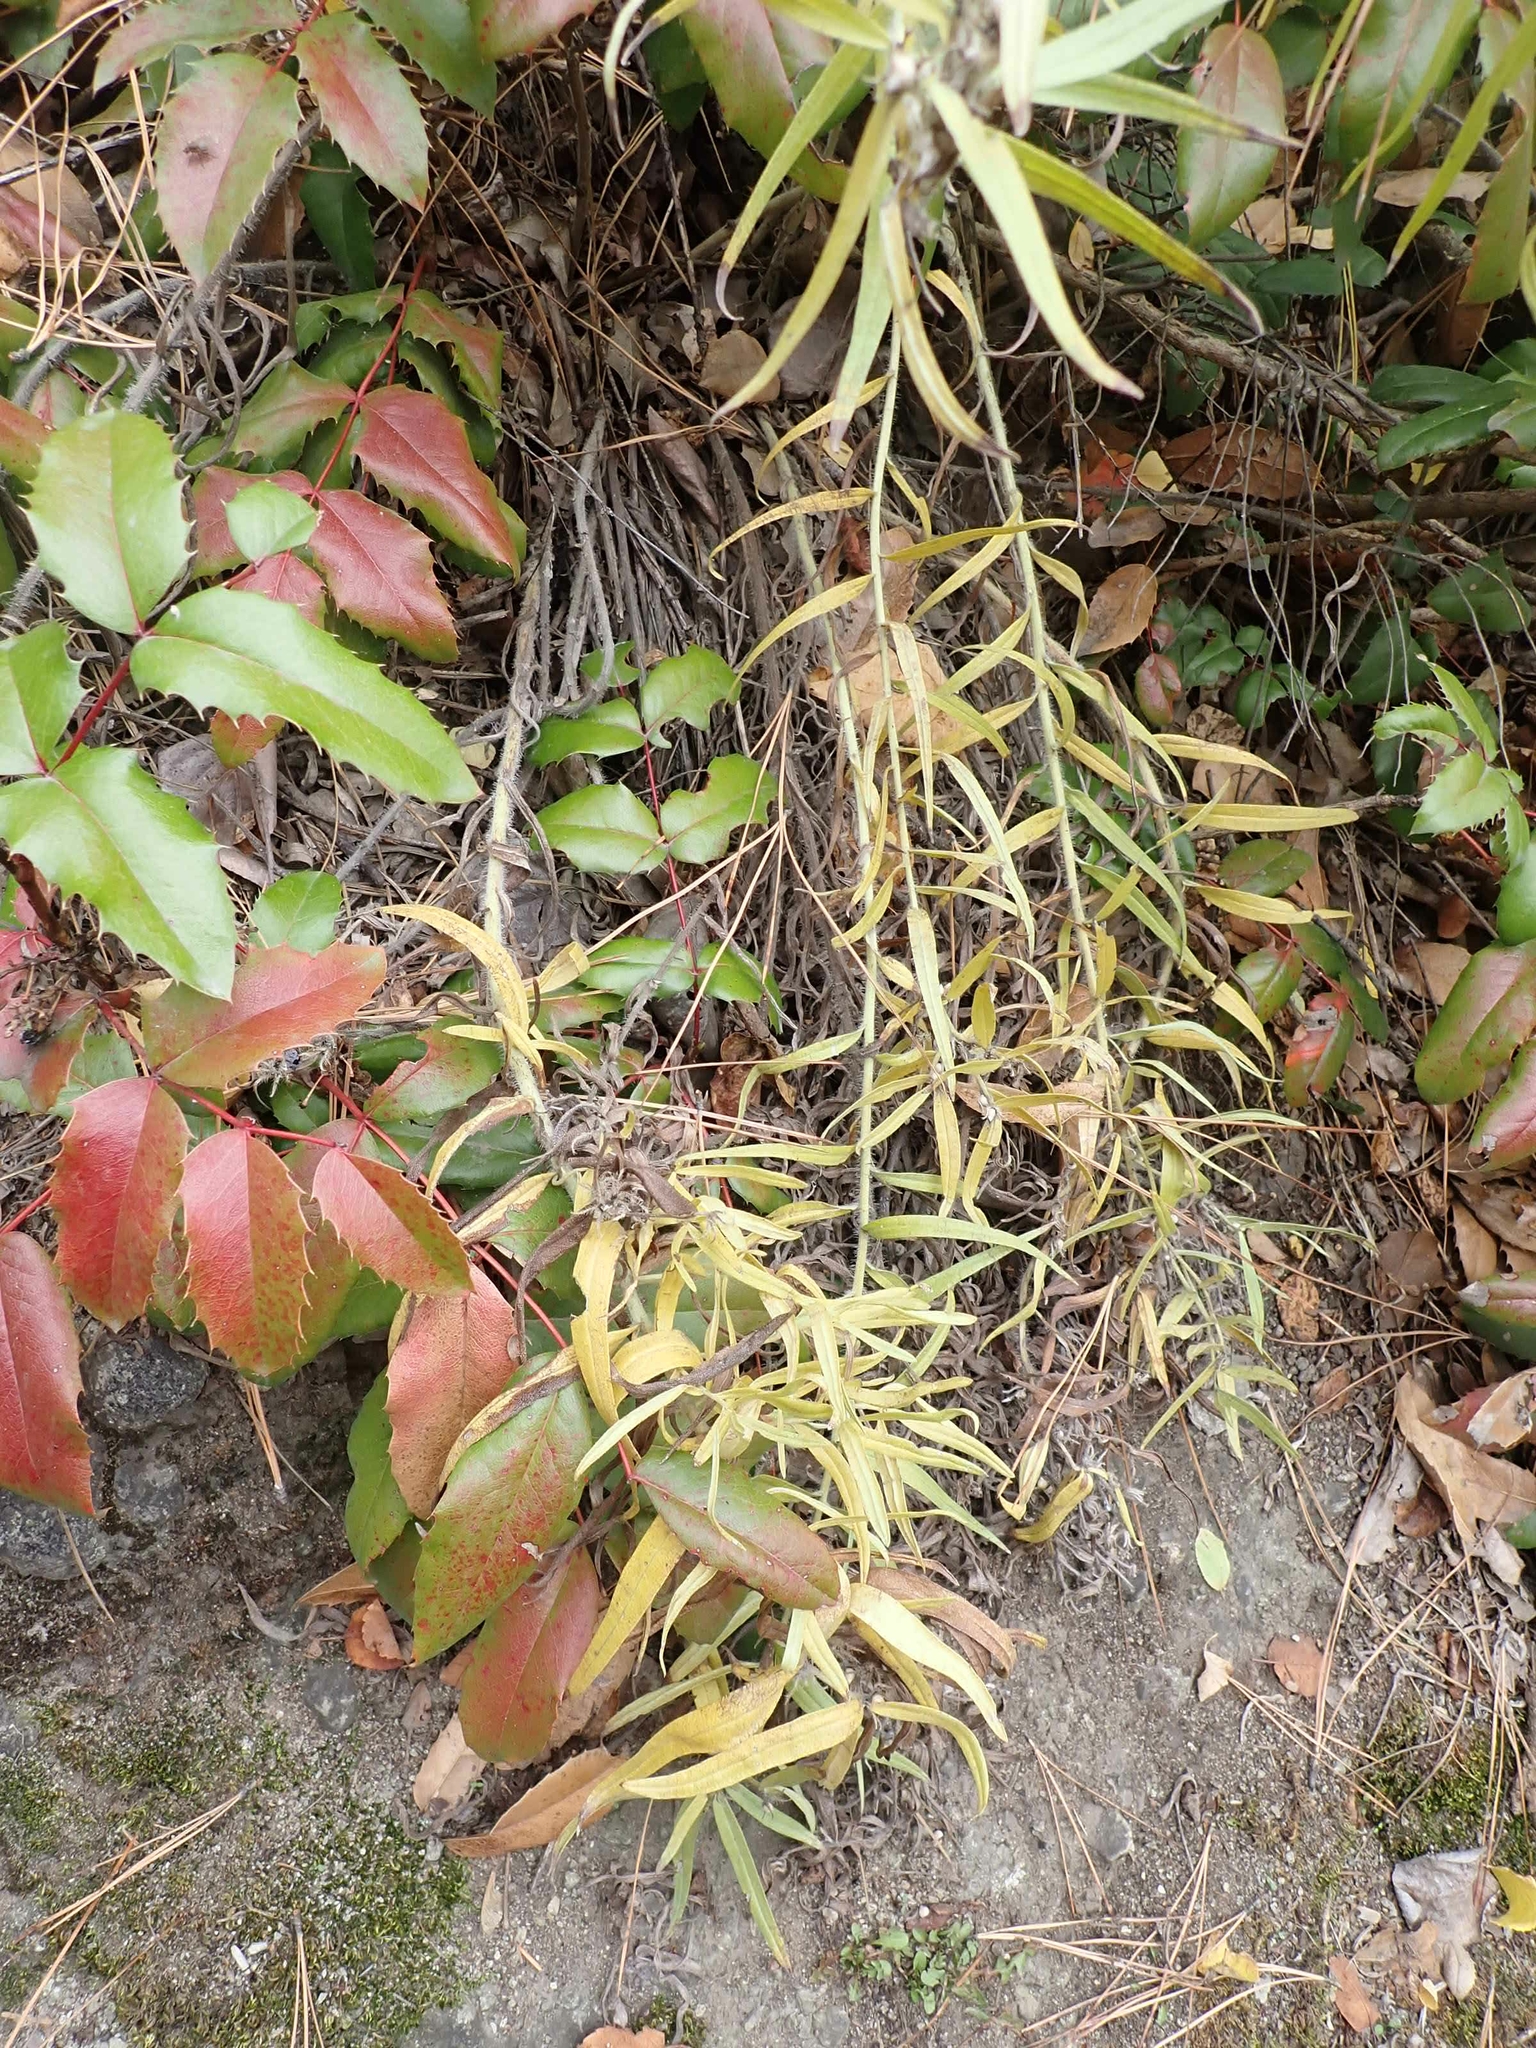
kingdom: Plantae
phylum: Tracheophyta
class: Magnoliopsida
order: Boraginales
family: Boraginaceae
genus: Lithospermum
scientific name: Lithospermum ruderale
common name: Western gromwell
